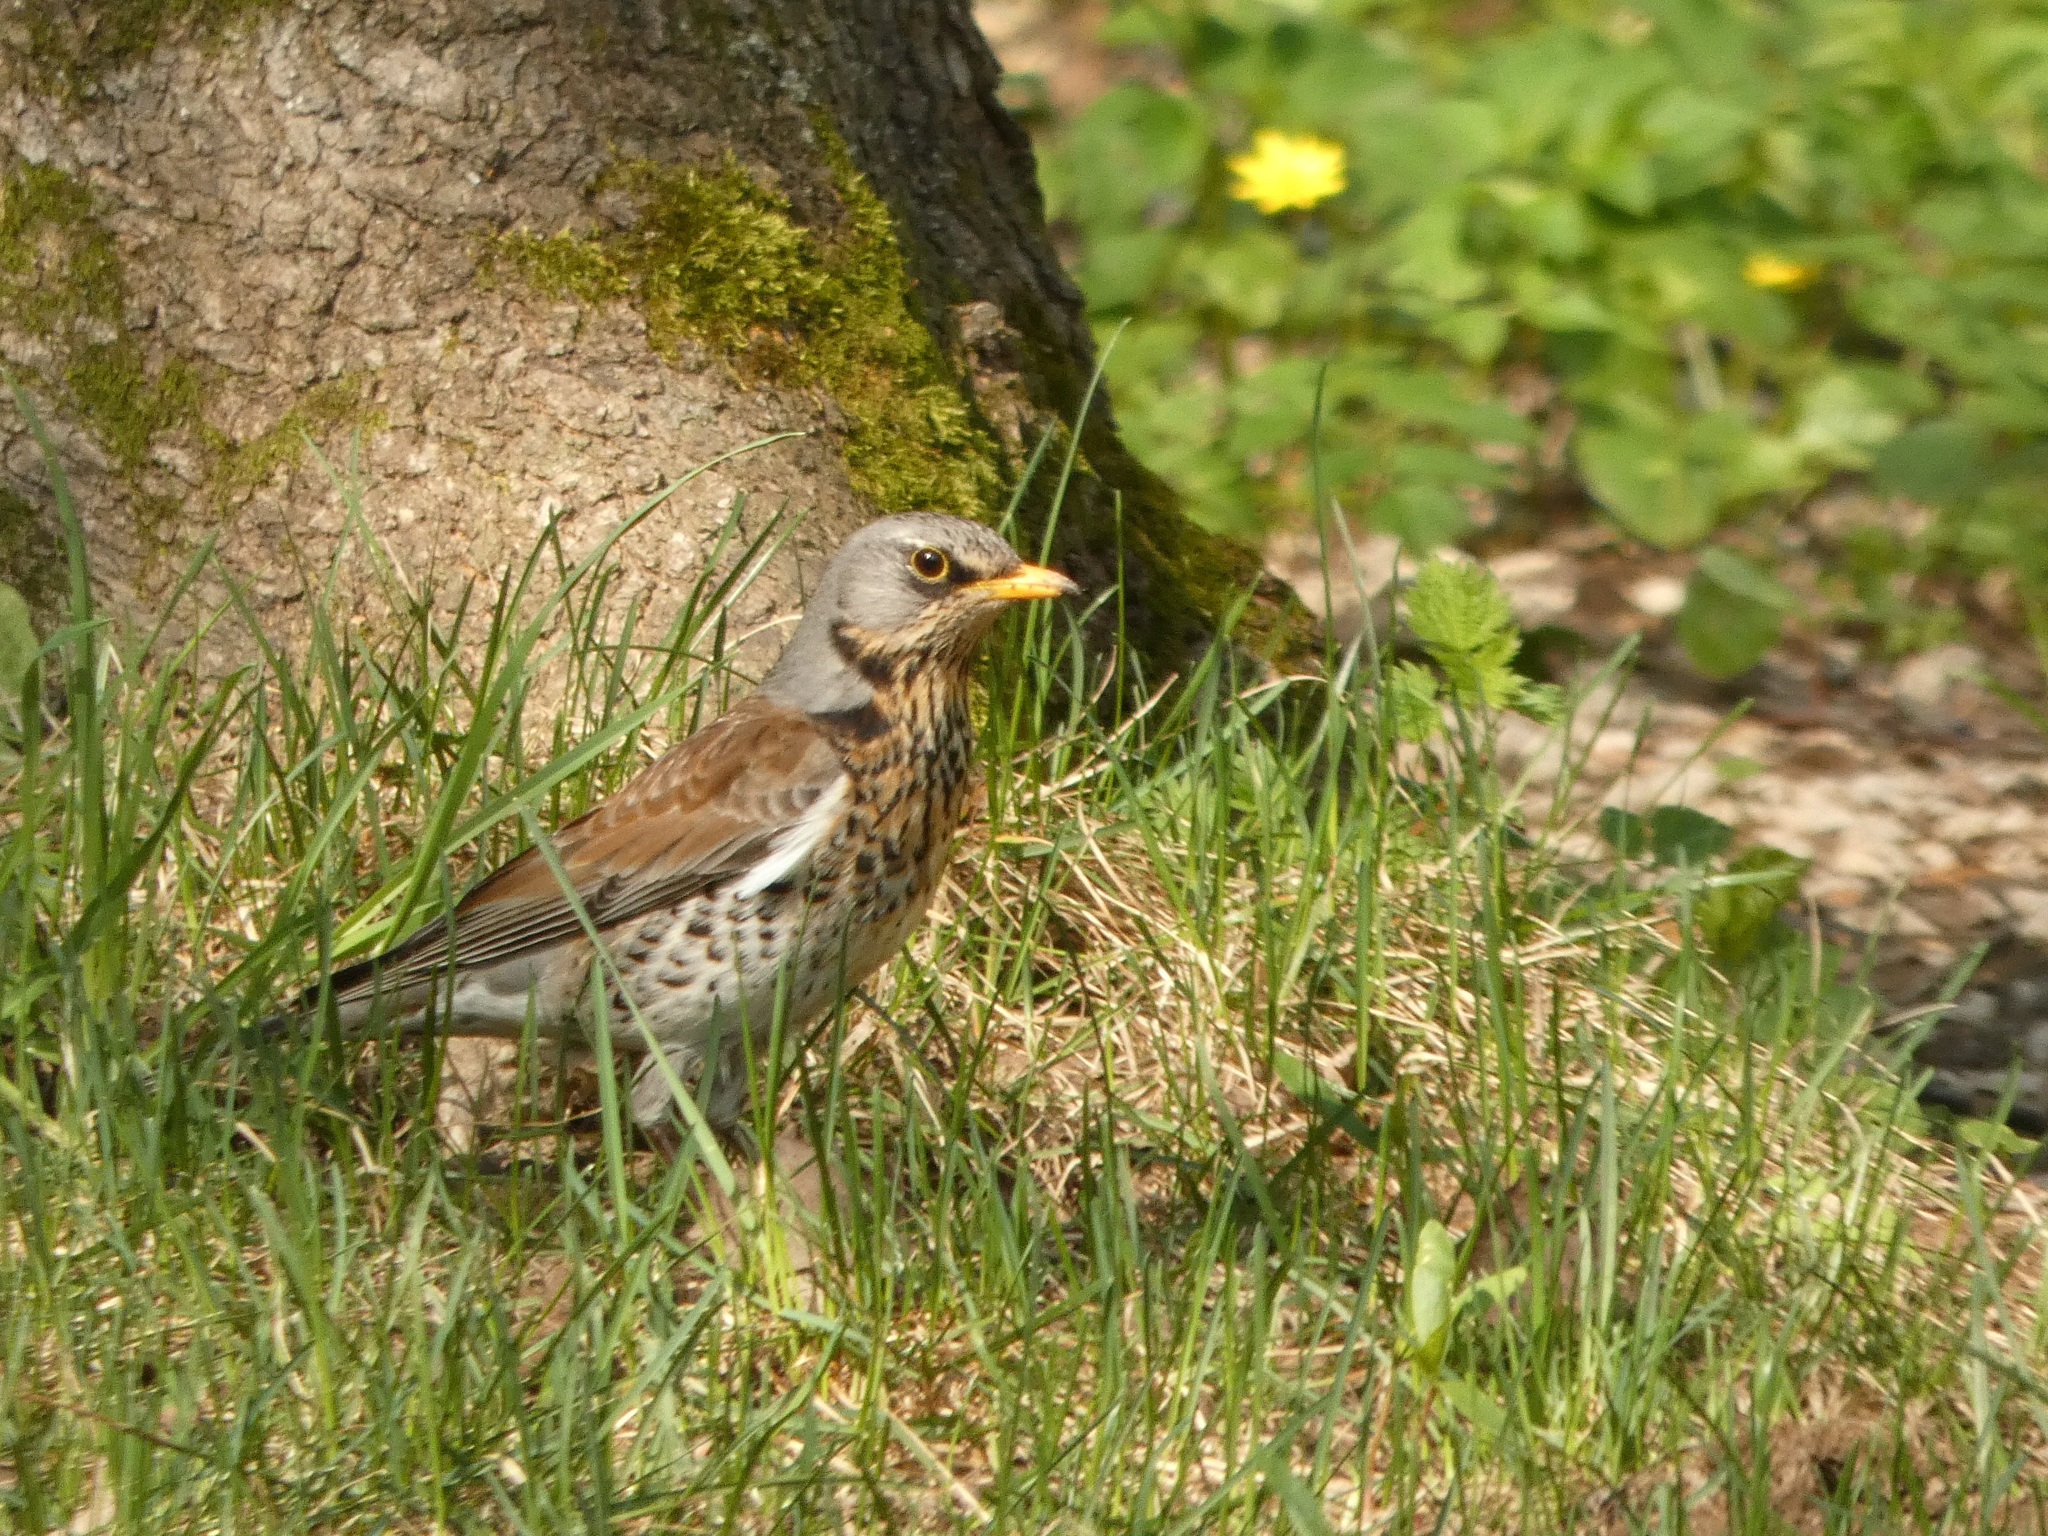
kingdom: Animalia
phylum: Chordata
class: Aves
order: Passeriformes
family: Turdidae
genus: Turdus
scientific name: Turdus pilaris
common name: Fieldfare
